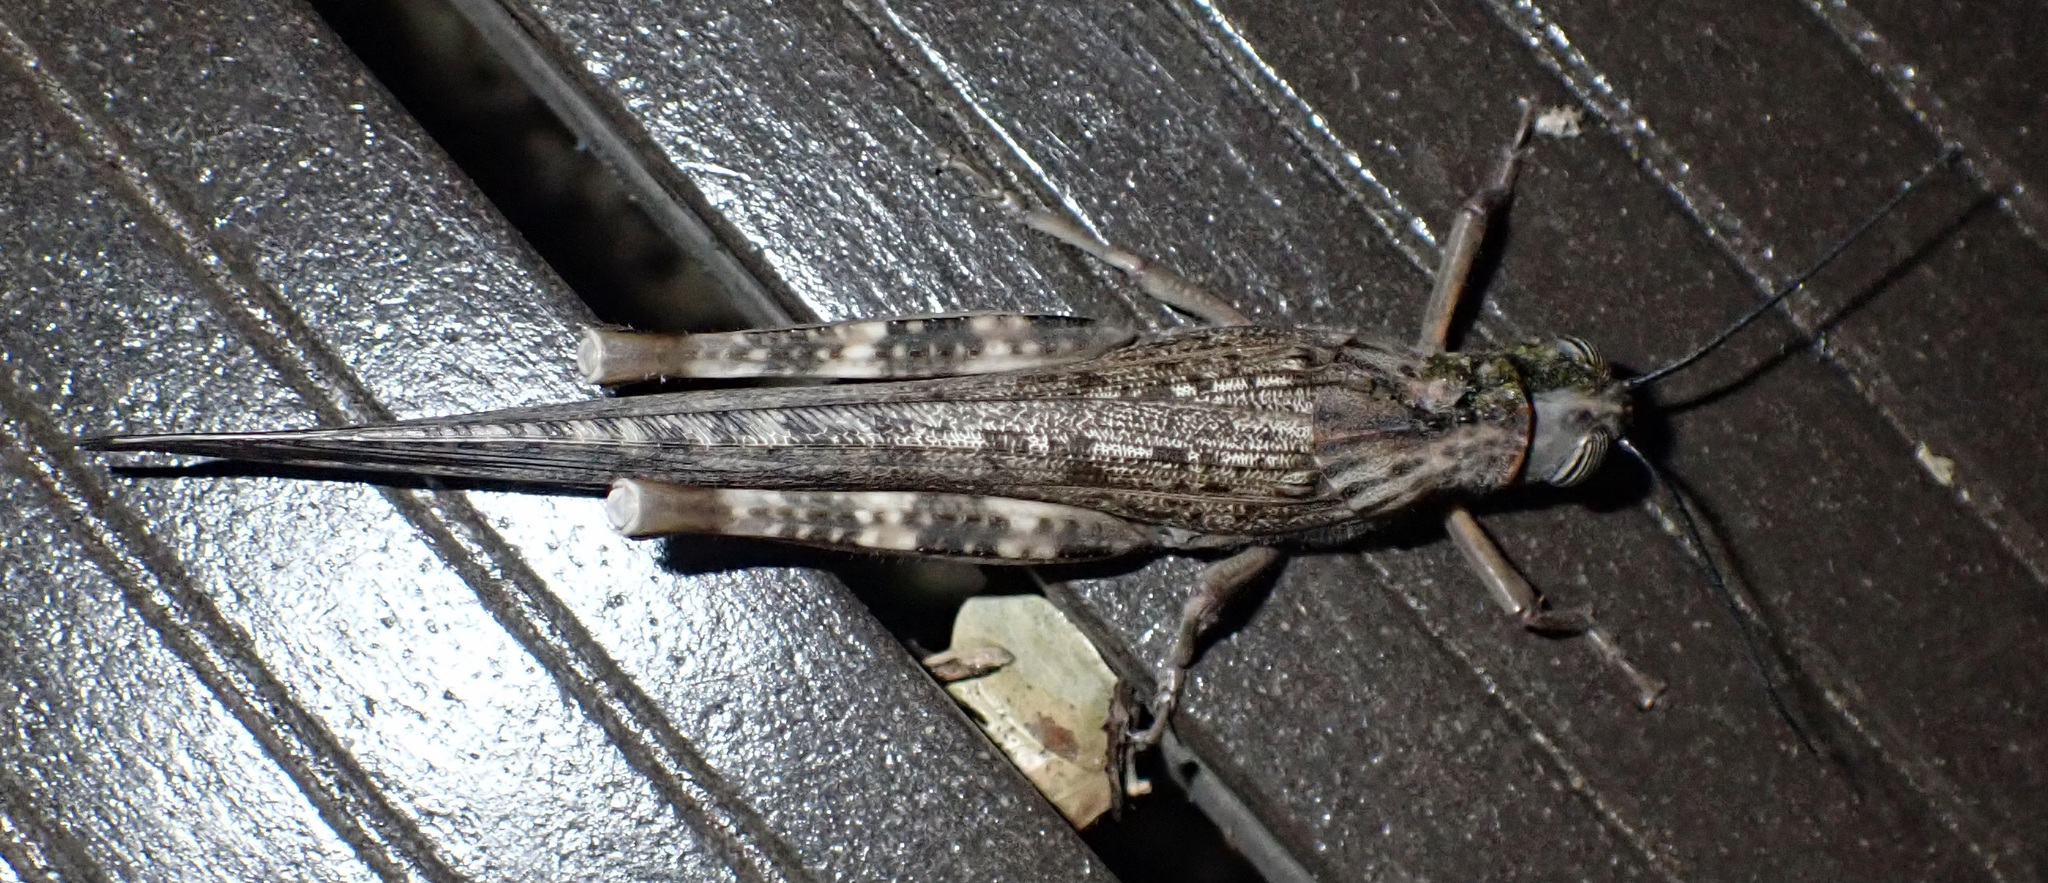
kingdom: Animalia
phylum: Arthropoda
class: Insecta
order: Orthoptera
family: Acrididae
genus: Anacridium
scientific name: Anacridium moestum
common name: Tree locust
